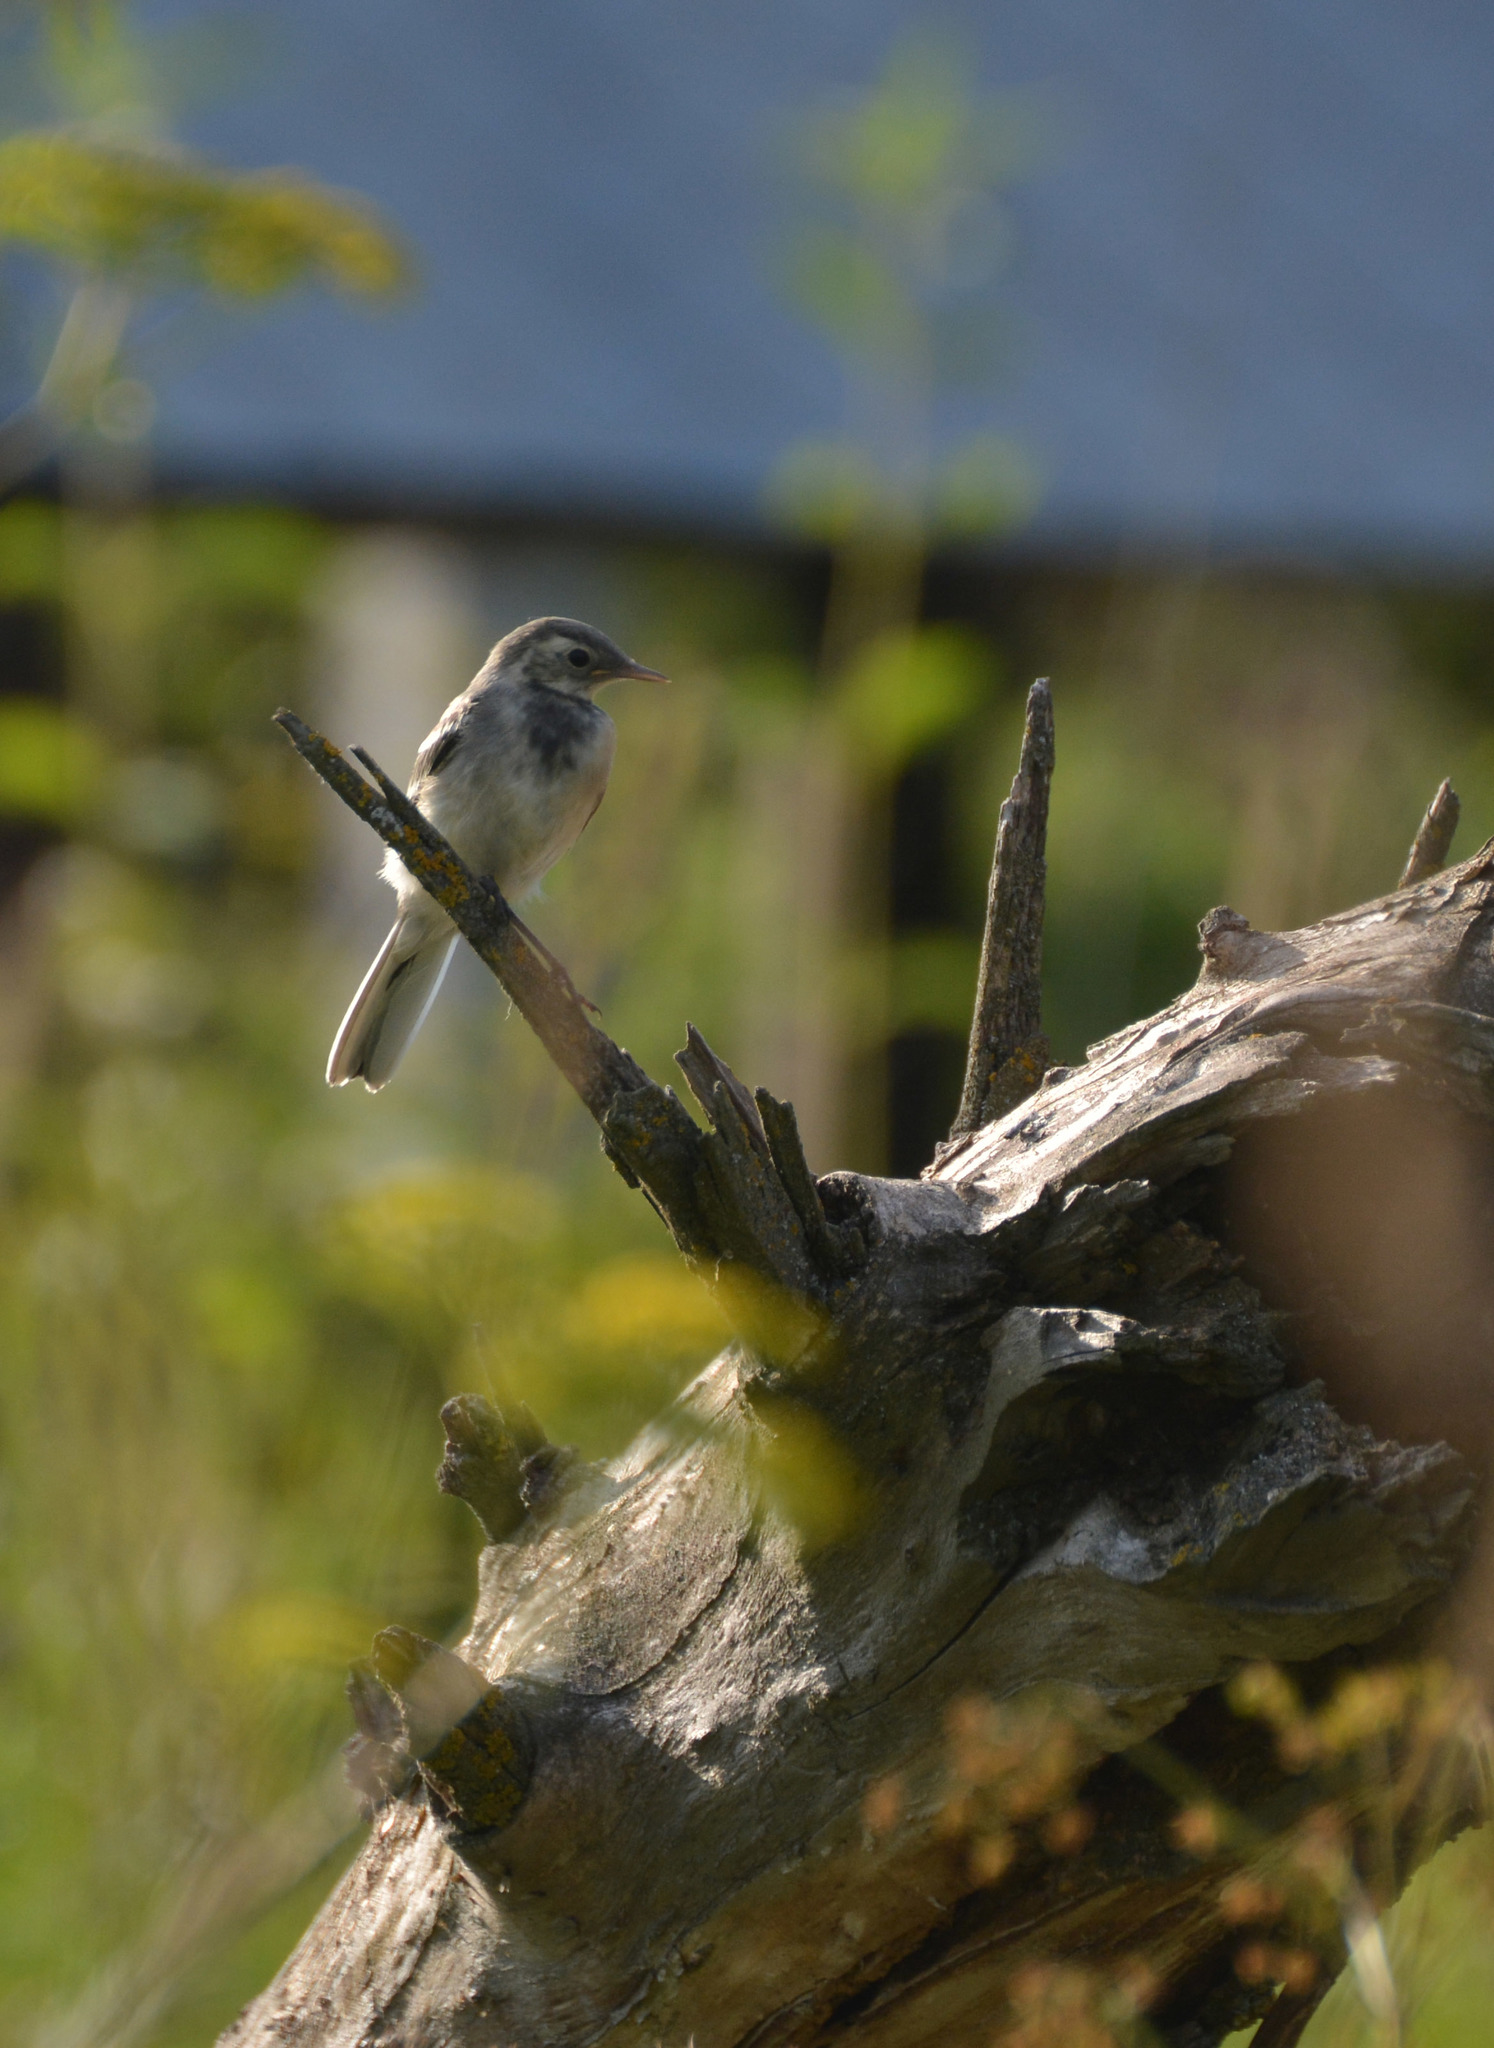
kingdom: Animalia
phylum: Chordata
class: Aves
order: Passeriformes
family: Motacillidae
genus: Motacilla
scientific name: Motacilla alba
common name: White wagtail
